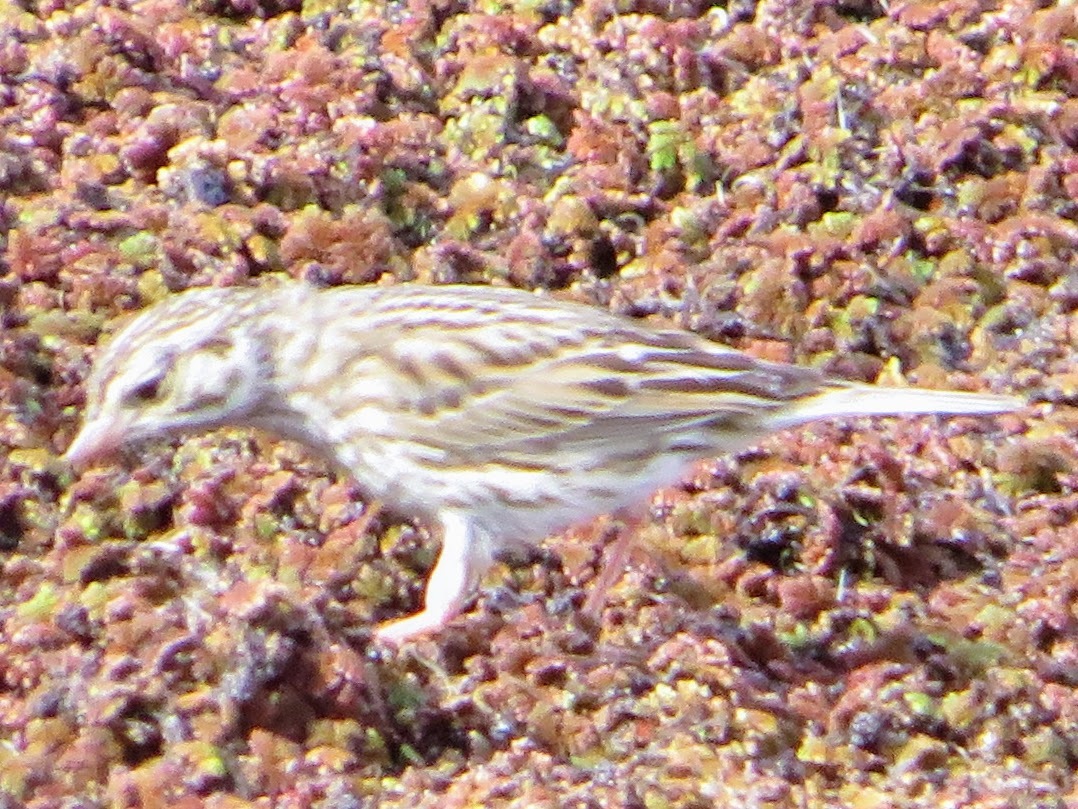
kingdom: Animalia
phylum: Chordata
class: Aves
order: Passeriformes
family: Passerellidae
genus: Passerculus
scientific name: Passerculus sandwichensis
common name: Savannah sparrow
